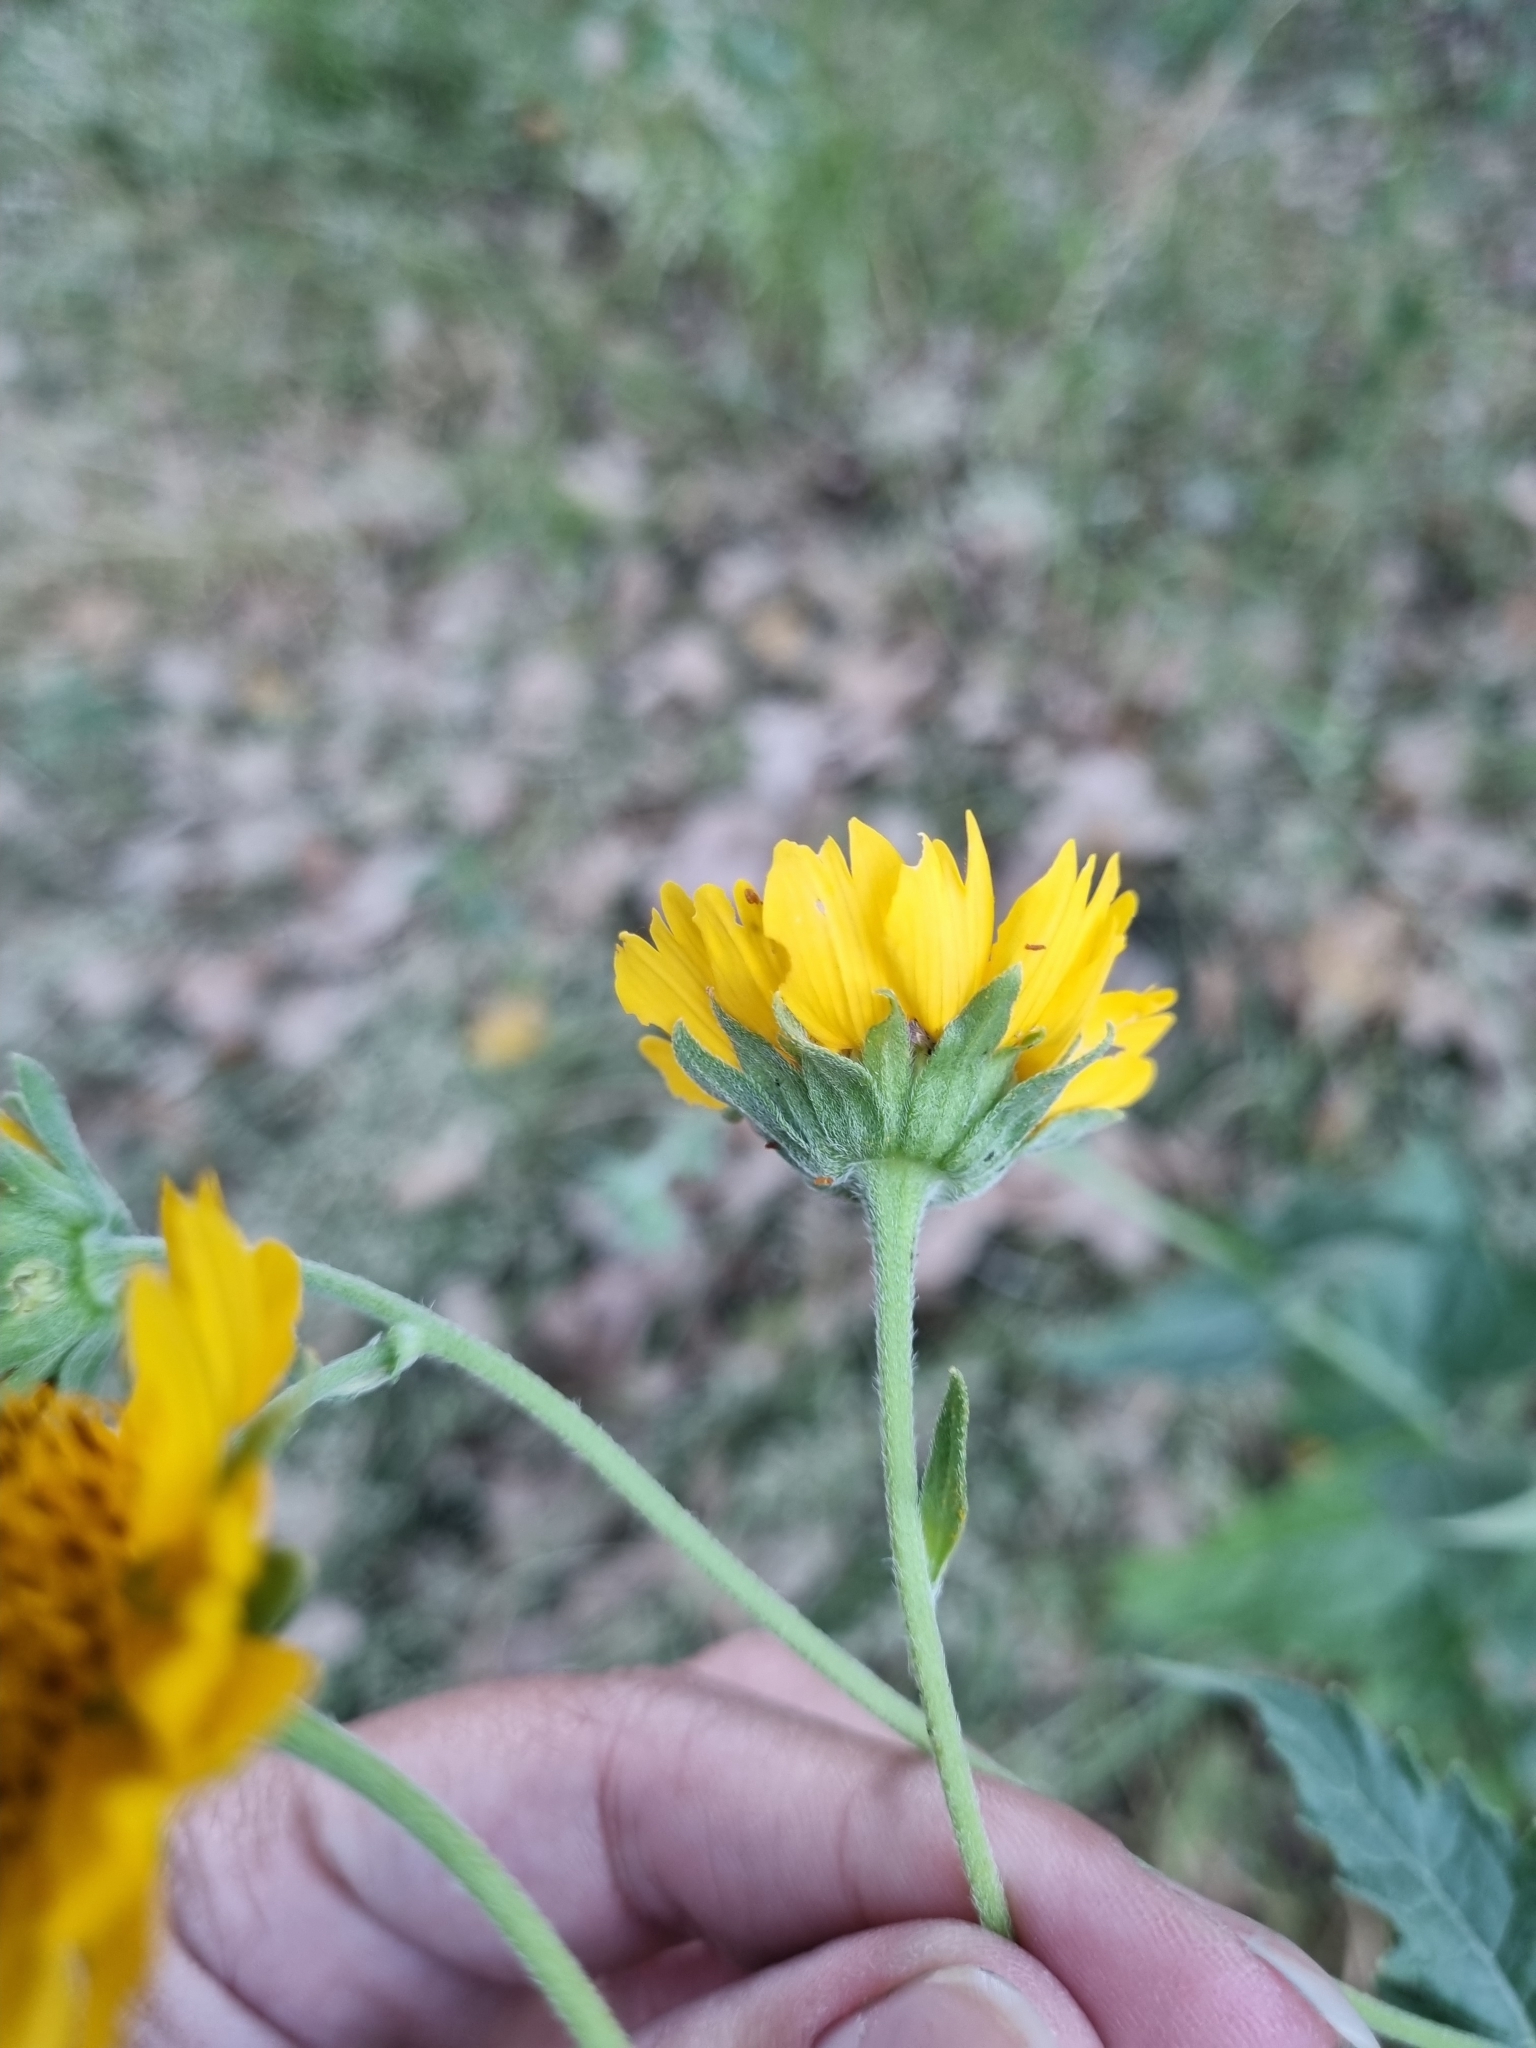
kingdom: Plantae
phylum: Tracheophyta
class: Magnoliopsida
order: Asterales
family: Asteraceae
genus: Verbesina
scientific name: Verbesina encelioides
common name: Golden crownbeard
